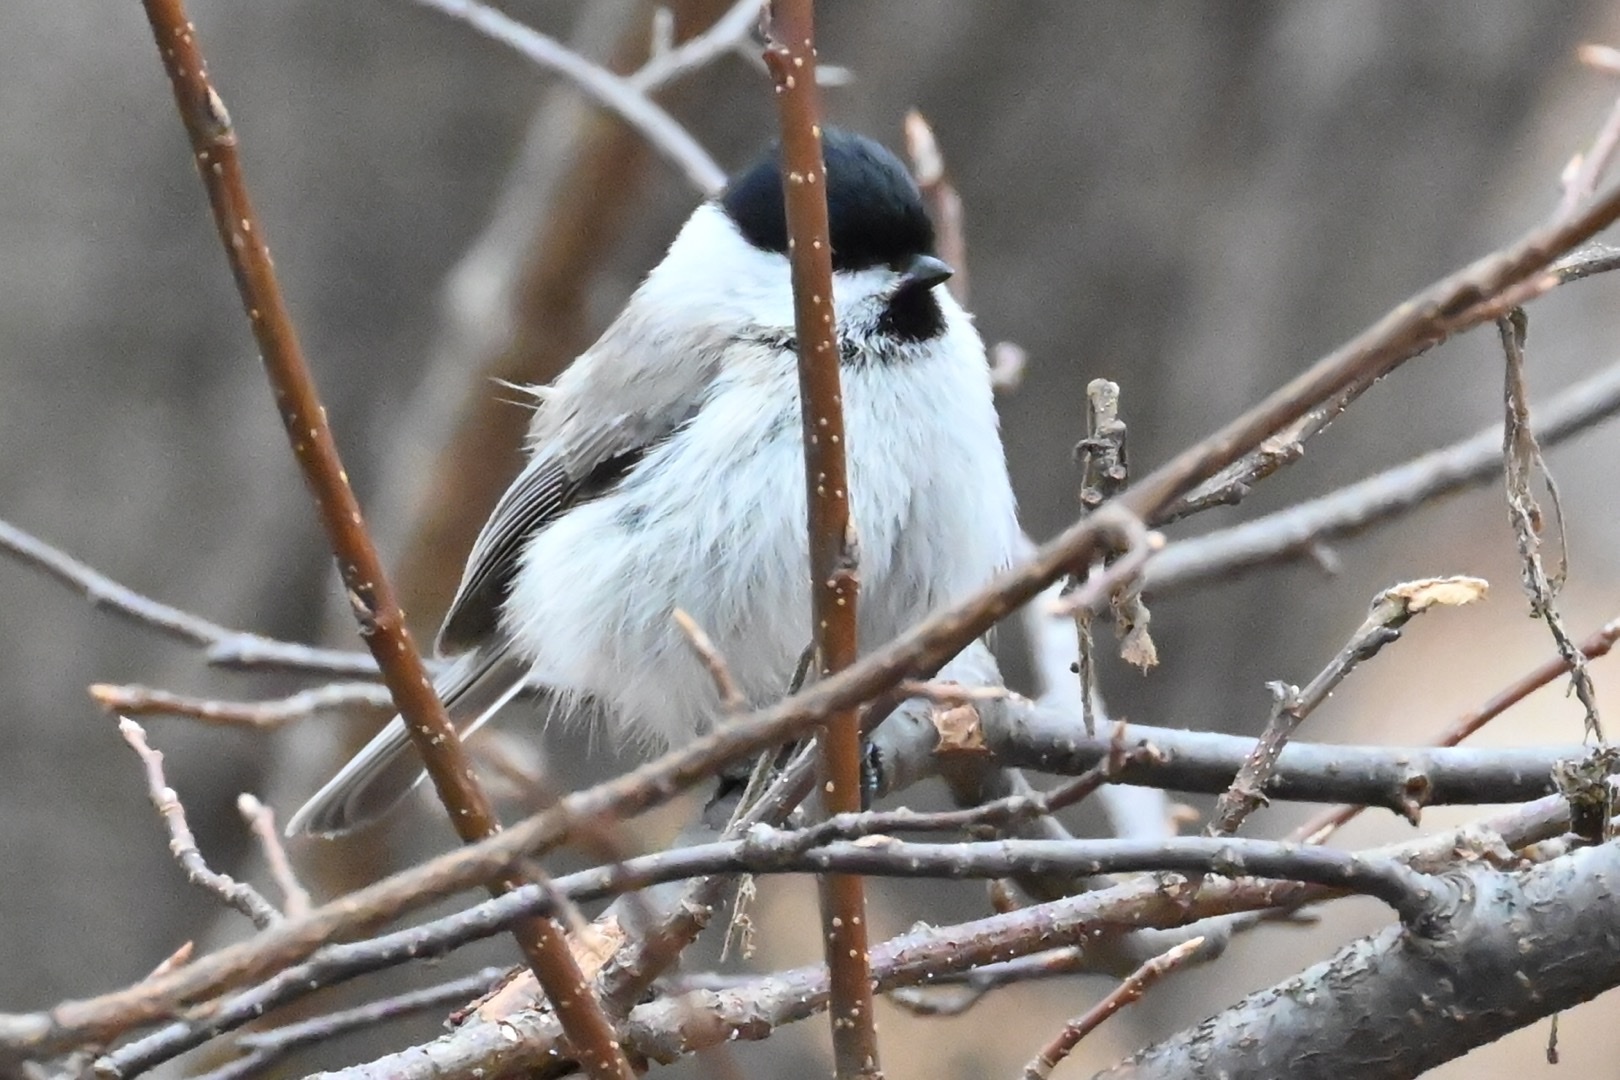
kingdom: Animalia
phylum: Chordata
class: Aves
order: Passeriformes
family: Paridae
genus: Poecile
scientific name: Poecile palustris
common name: Marsh tit
